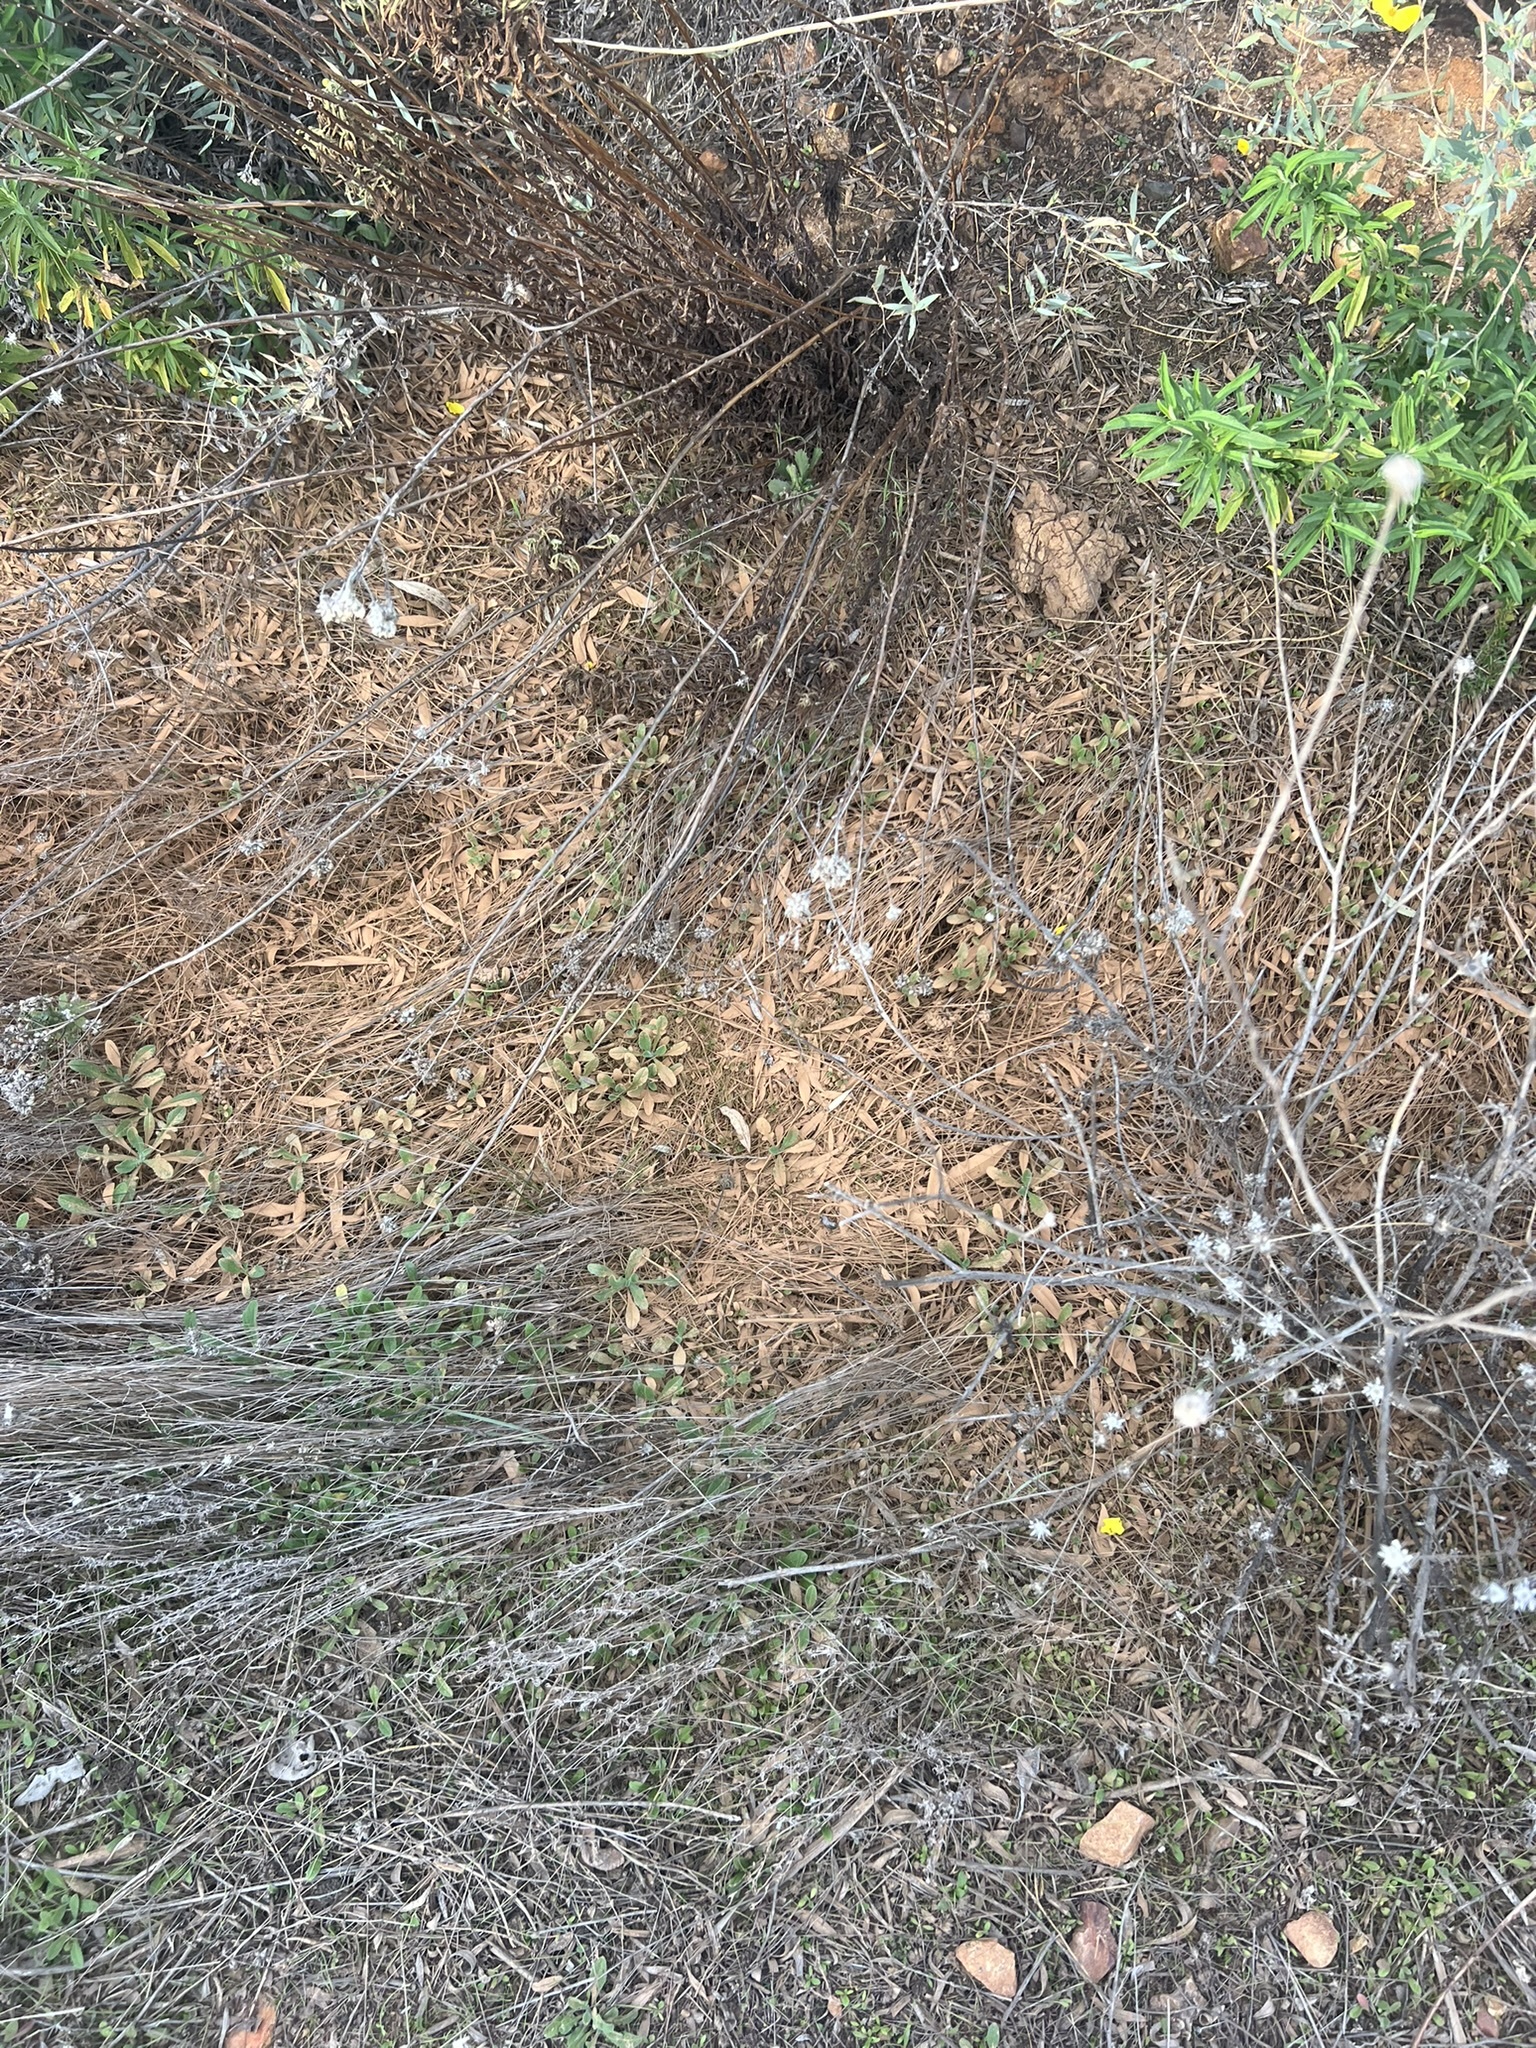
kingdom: Plantae
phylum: Tracheophyta
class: Magnoliopsida
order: Ranunculales
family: Papaveraceae
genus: Dendromecon
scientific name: Dendromecon rigida
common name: Tree poppy
